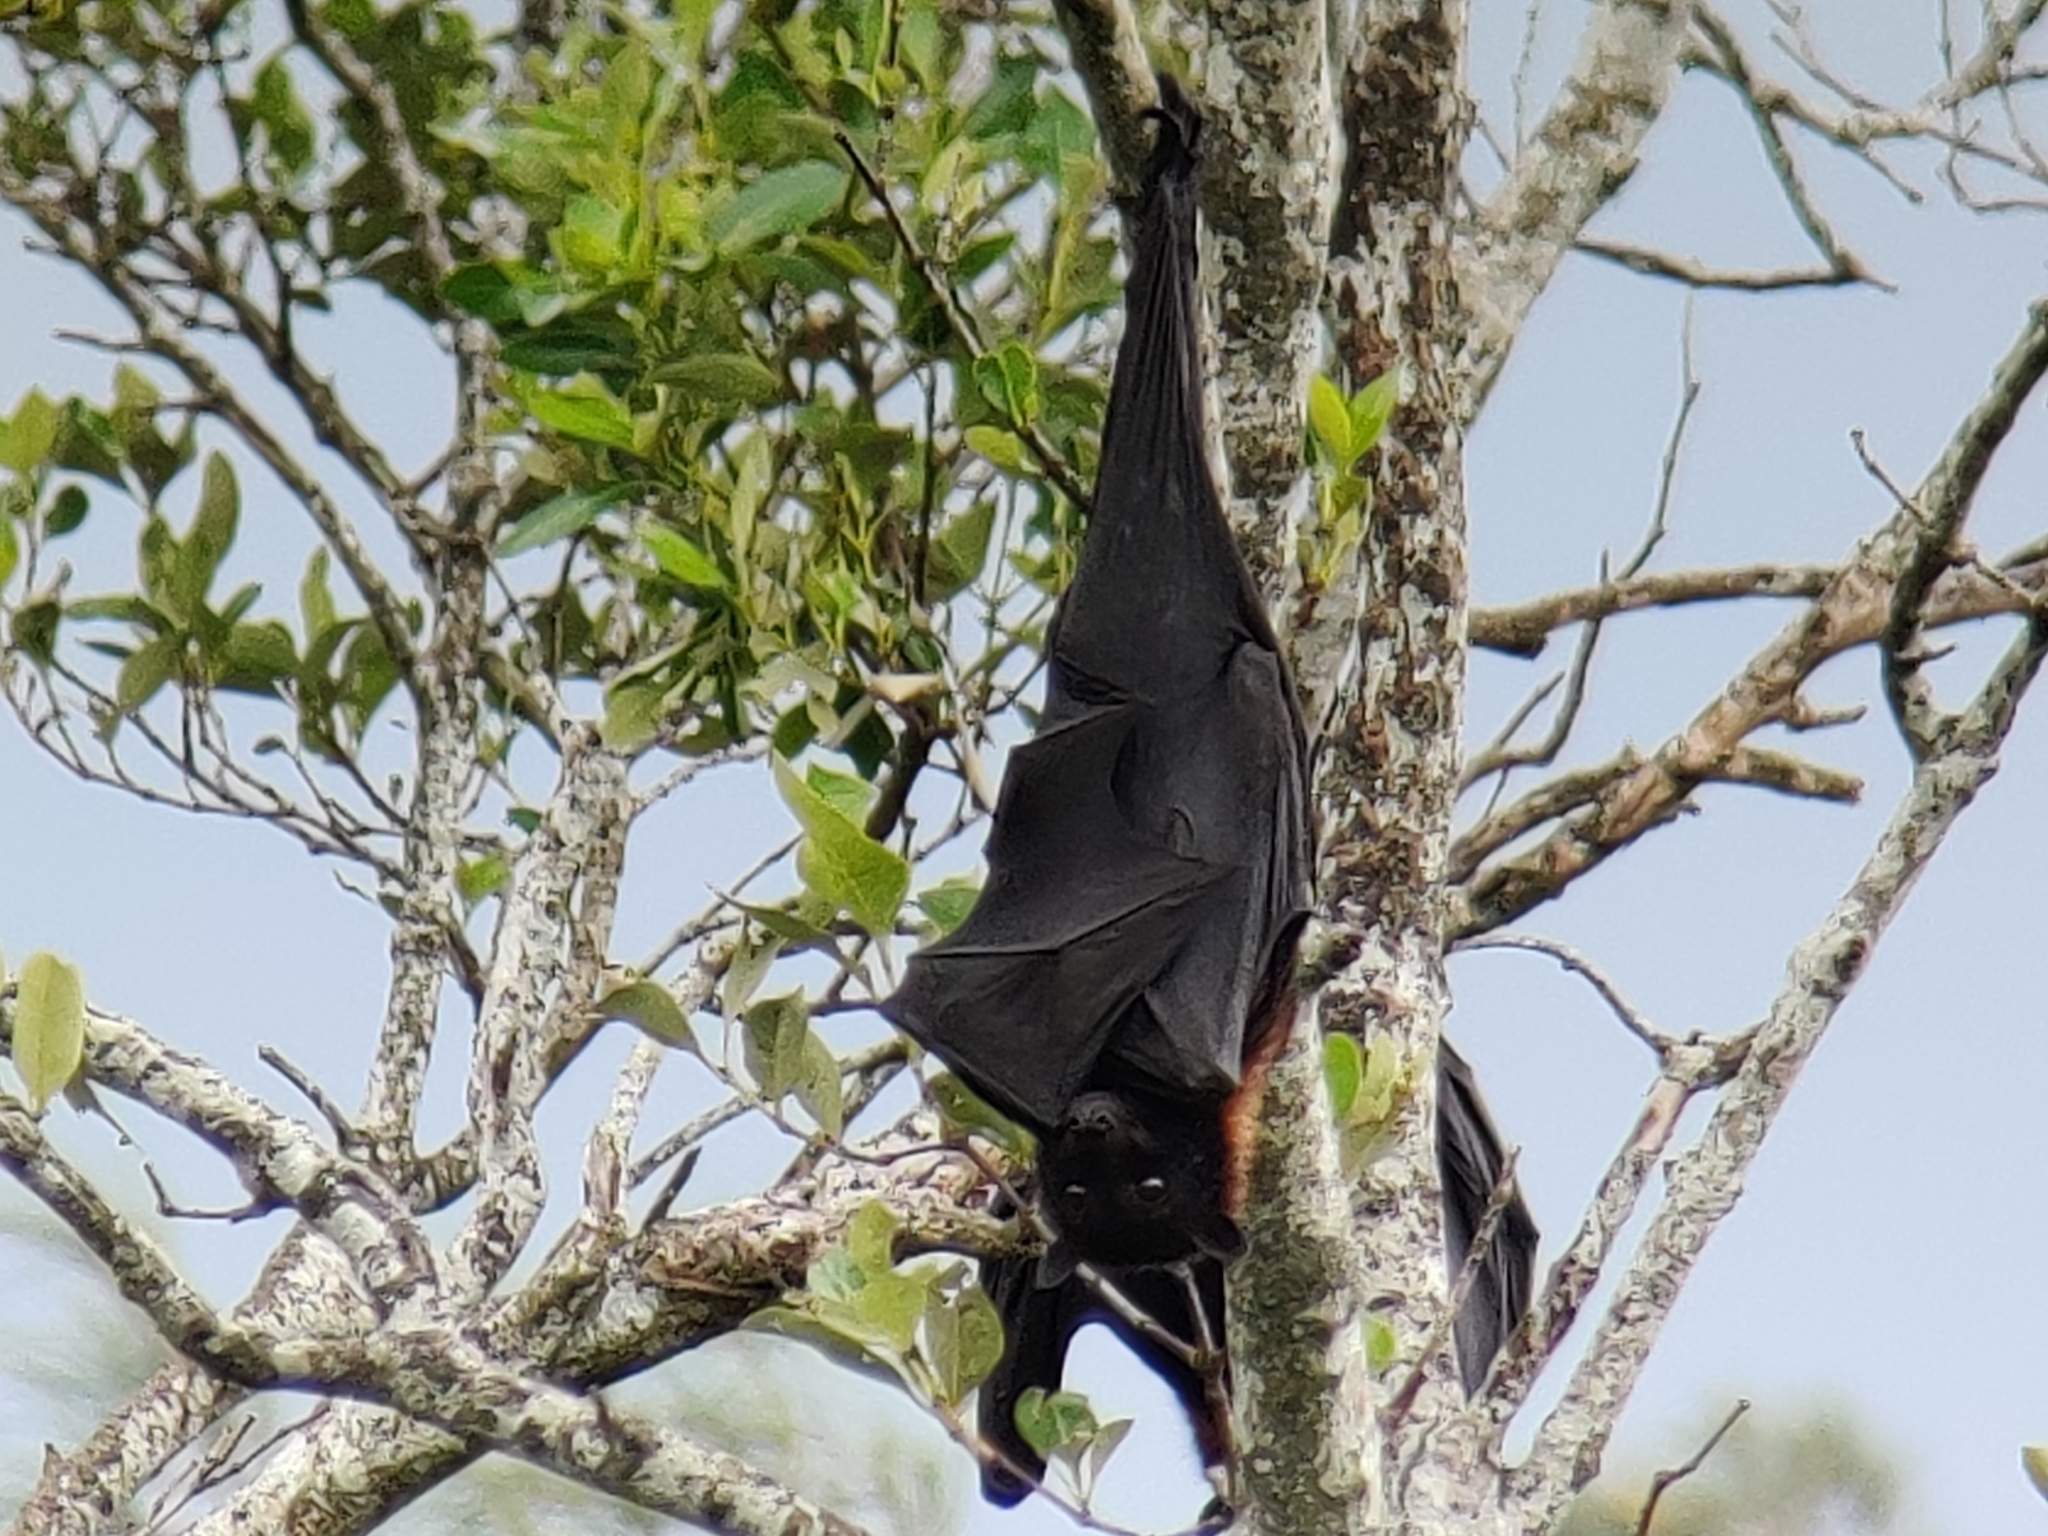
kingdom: Animalia
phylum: Chordata
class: Mammalia
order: Chiroptera
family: Pteropodidae
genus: Pteropus
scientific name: Pteropus alecto
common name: Black flying fox
